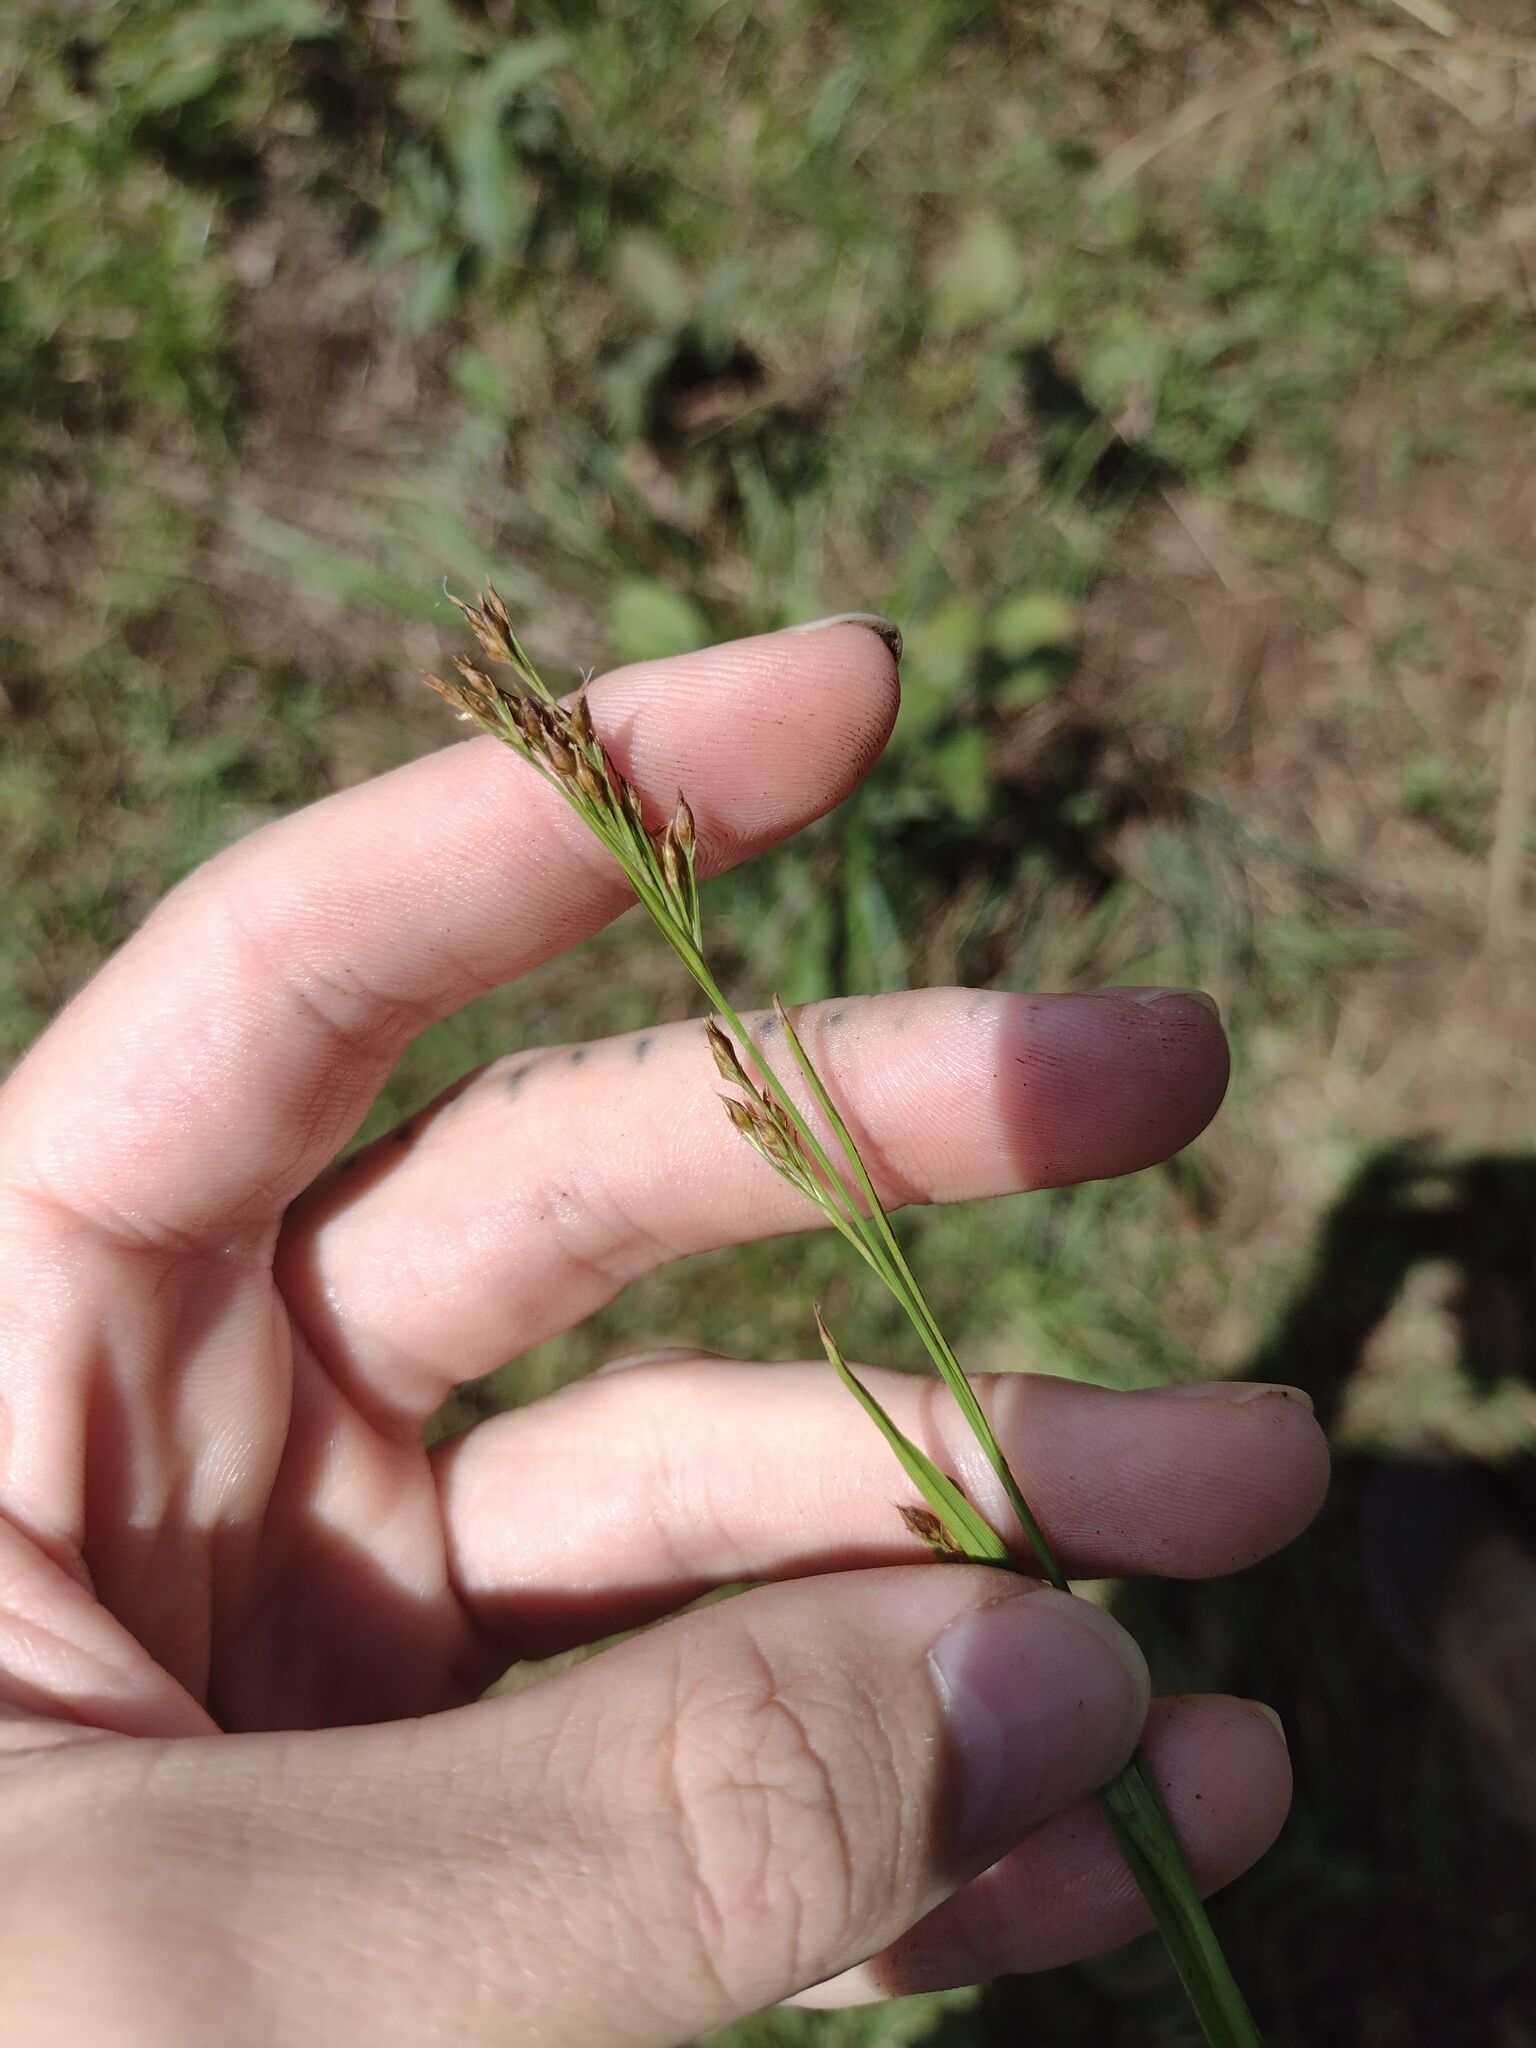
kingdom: Plantae
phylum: Tracheophyta
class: Liliopsida
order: Poales
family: Cyperaceae
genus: Rhynchospora
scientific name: Rhynchospora caduca
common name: Anglestem beaksedge
